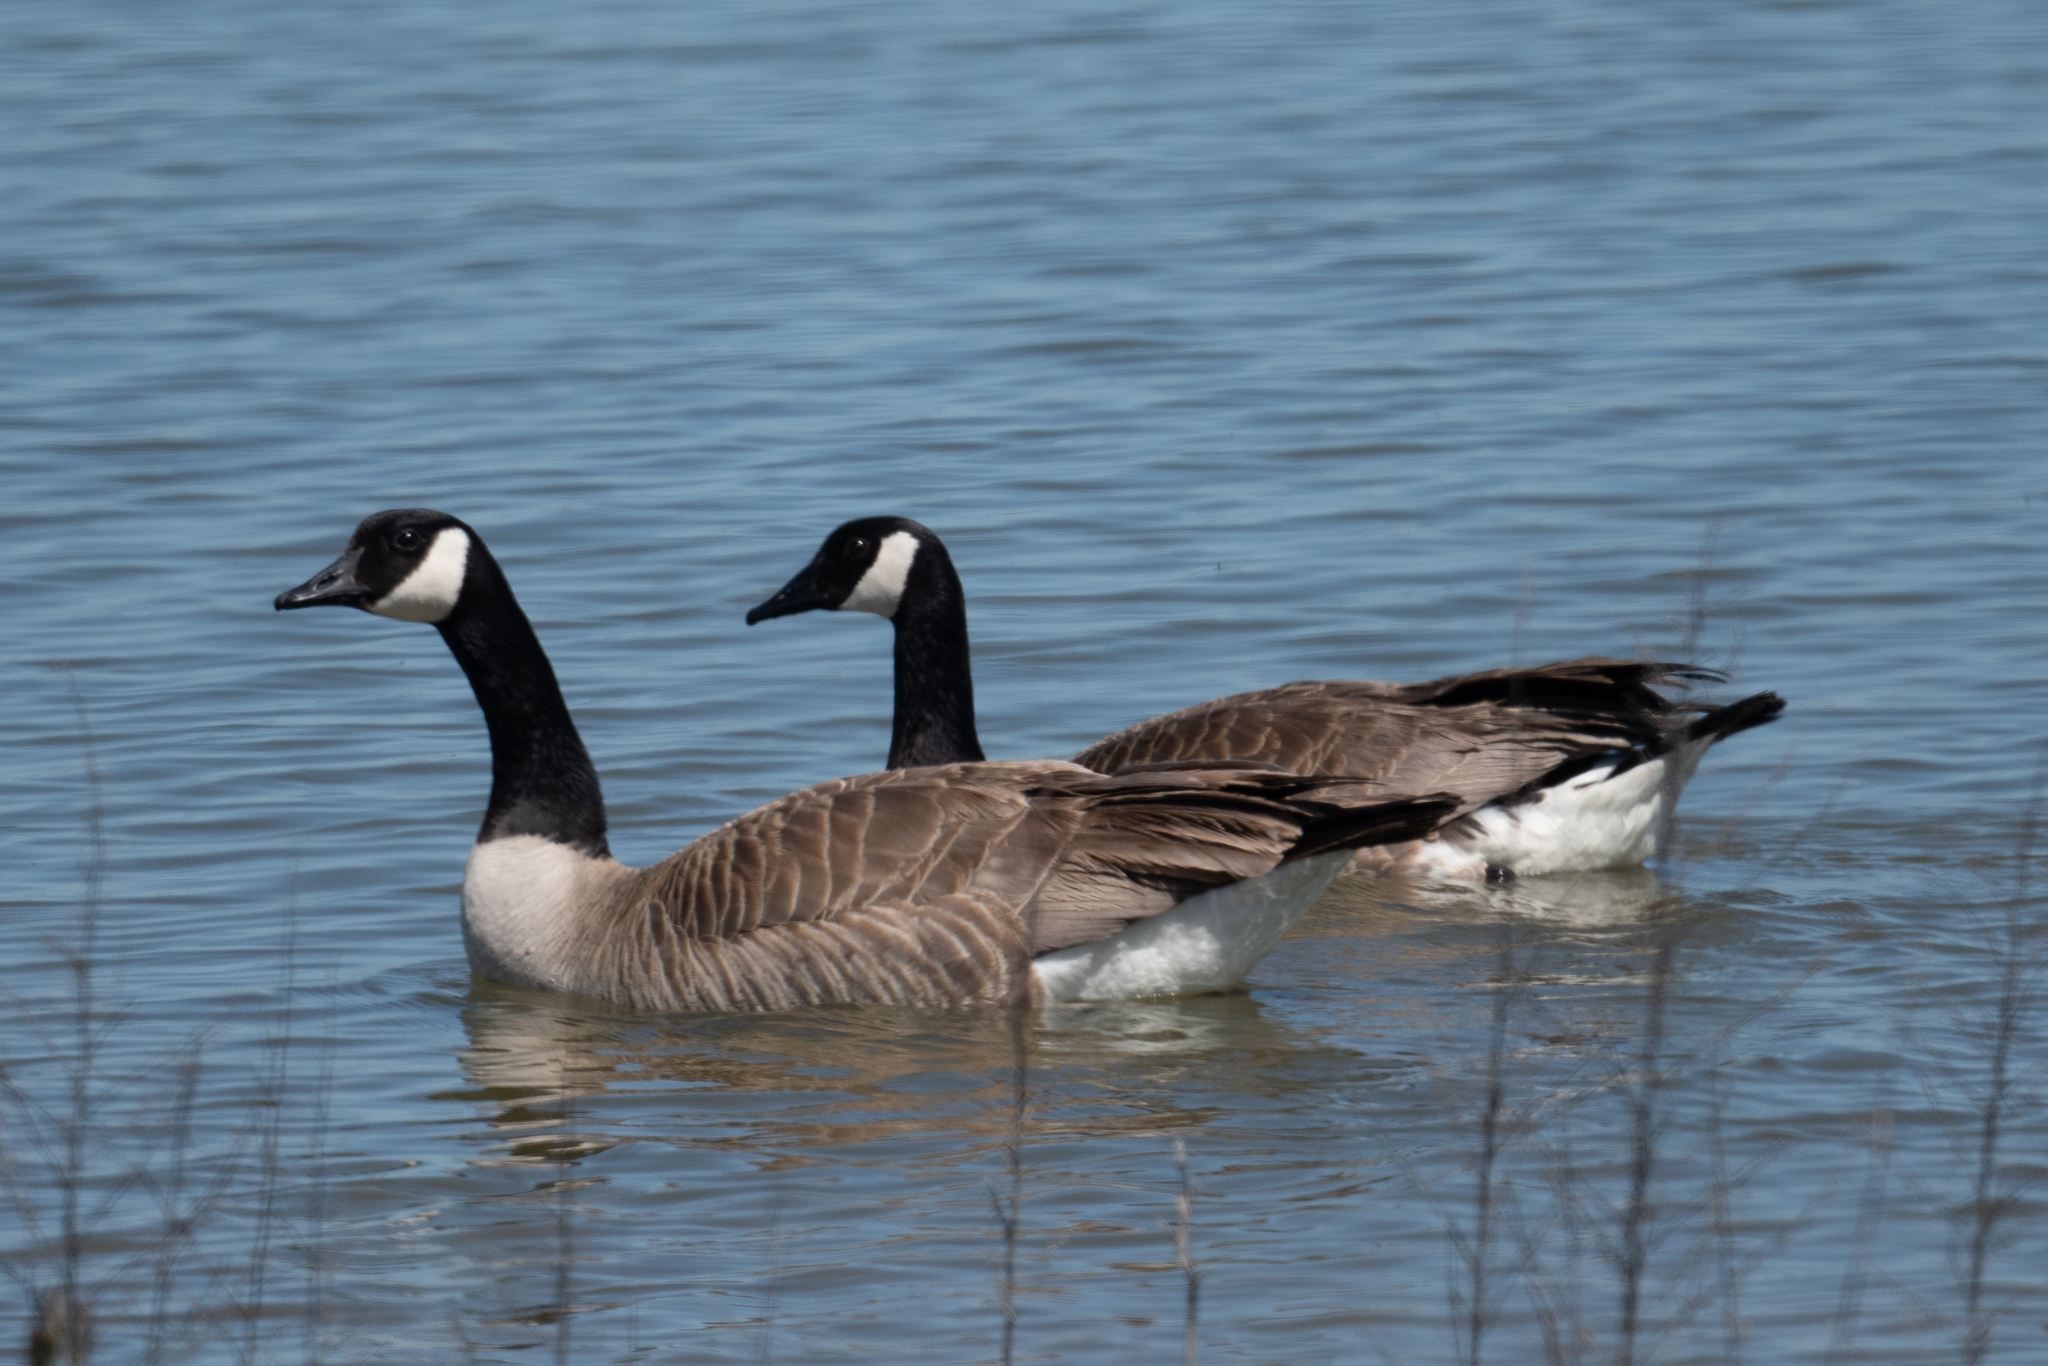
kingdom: Animalia
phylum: Chordata
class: Aves
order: Anseriformes
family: Anatidae
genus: Branta
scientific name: Branta canadensis
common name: Canada goose
